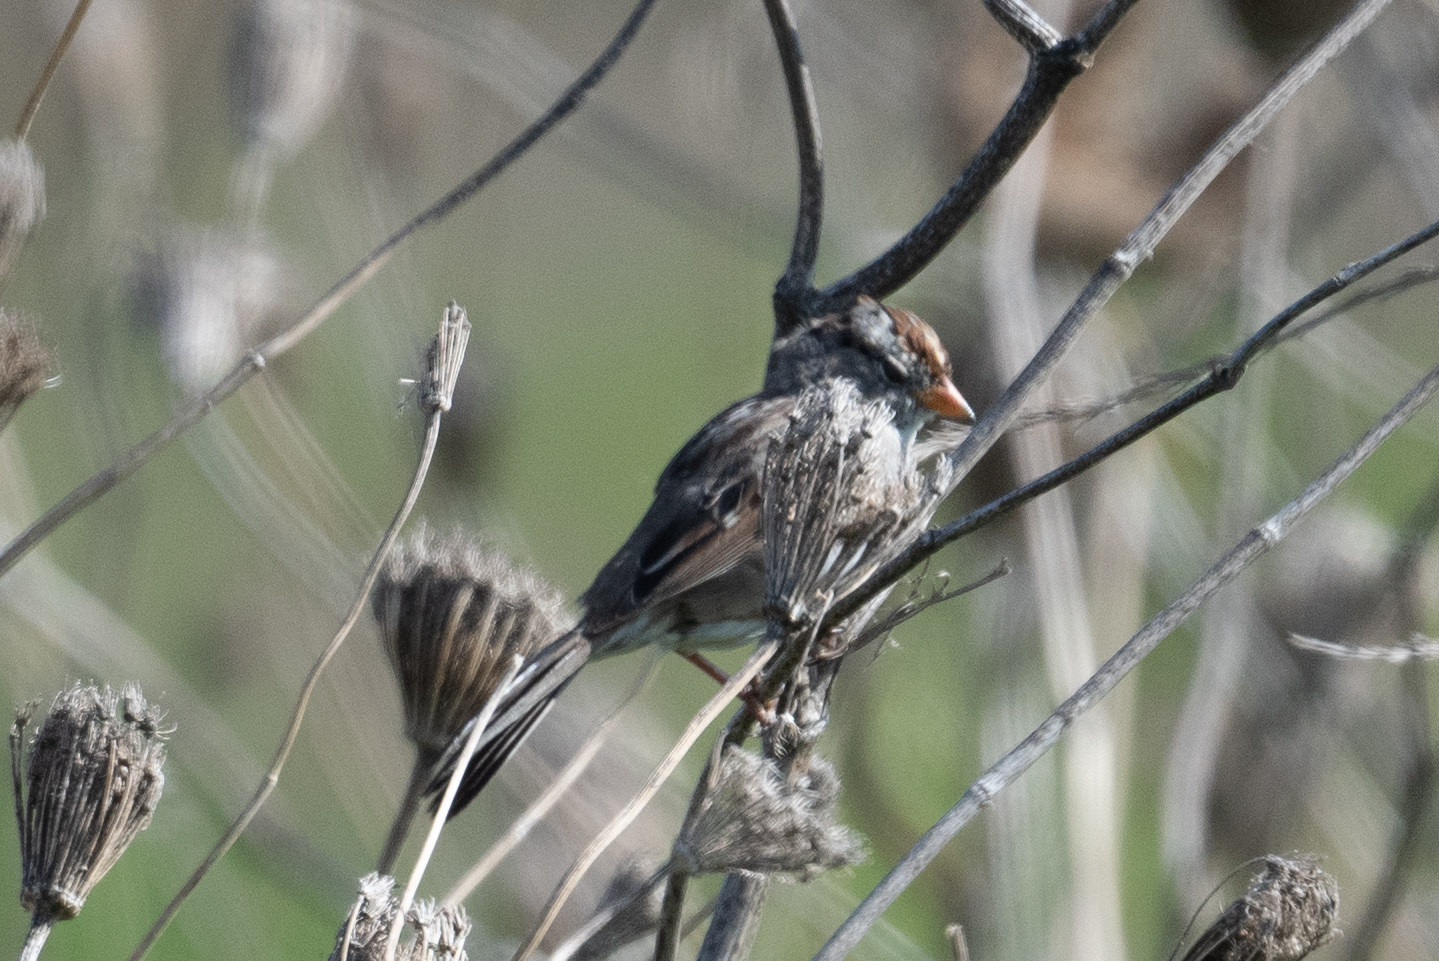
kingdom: Animalia
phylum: Chordata
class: Aves
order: Passeriformes
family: Passerellidae
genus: Zonotrichia
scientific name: Zonotrichia leucophrys
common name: White-crowned sparrow
